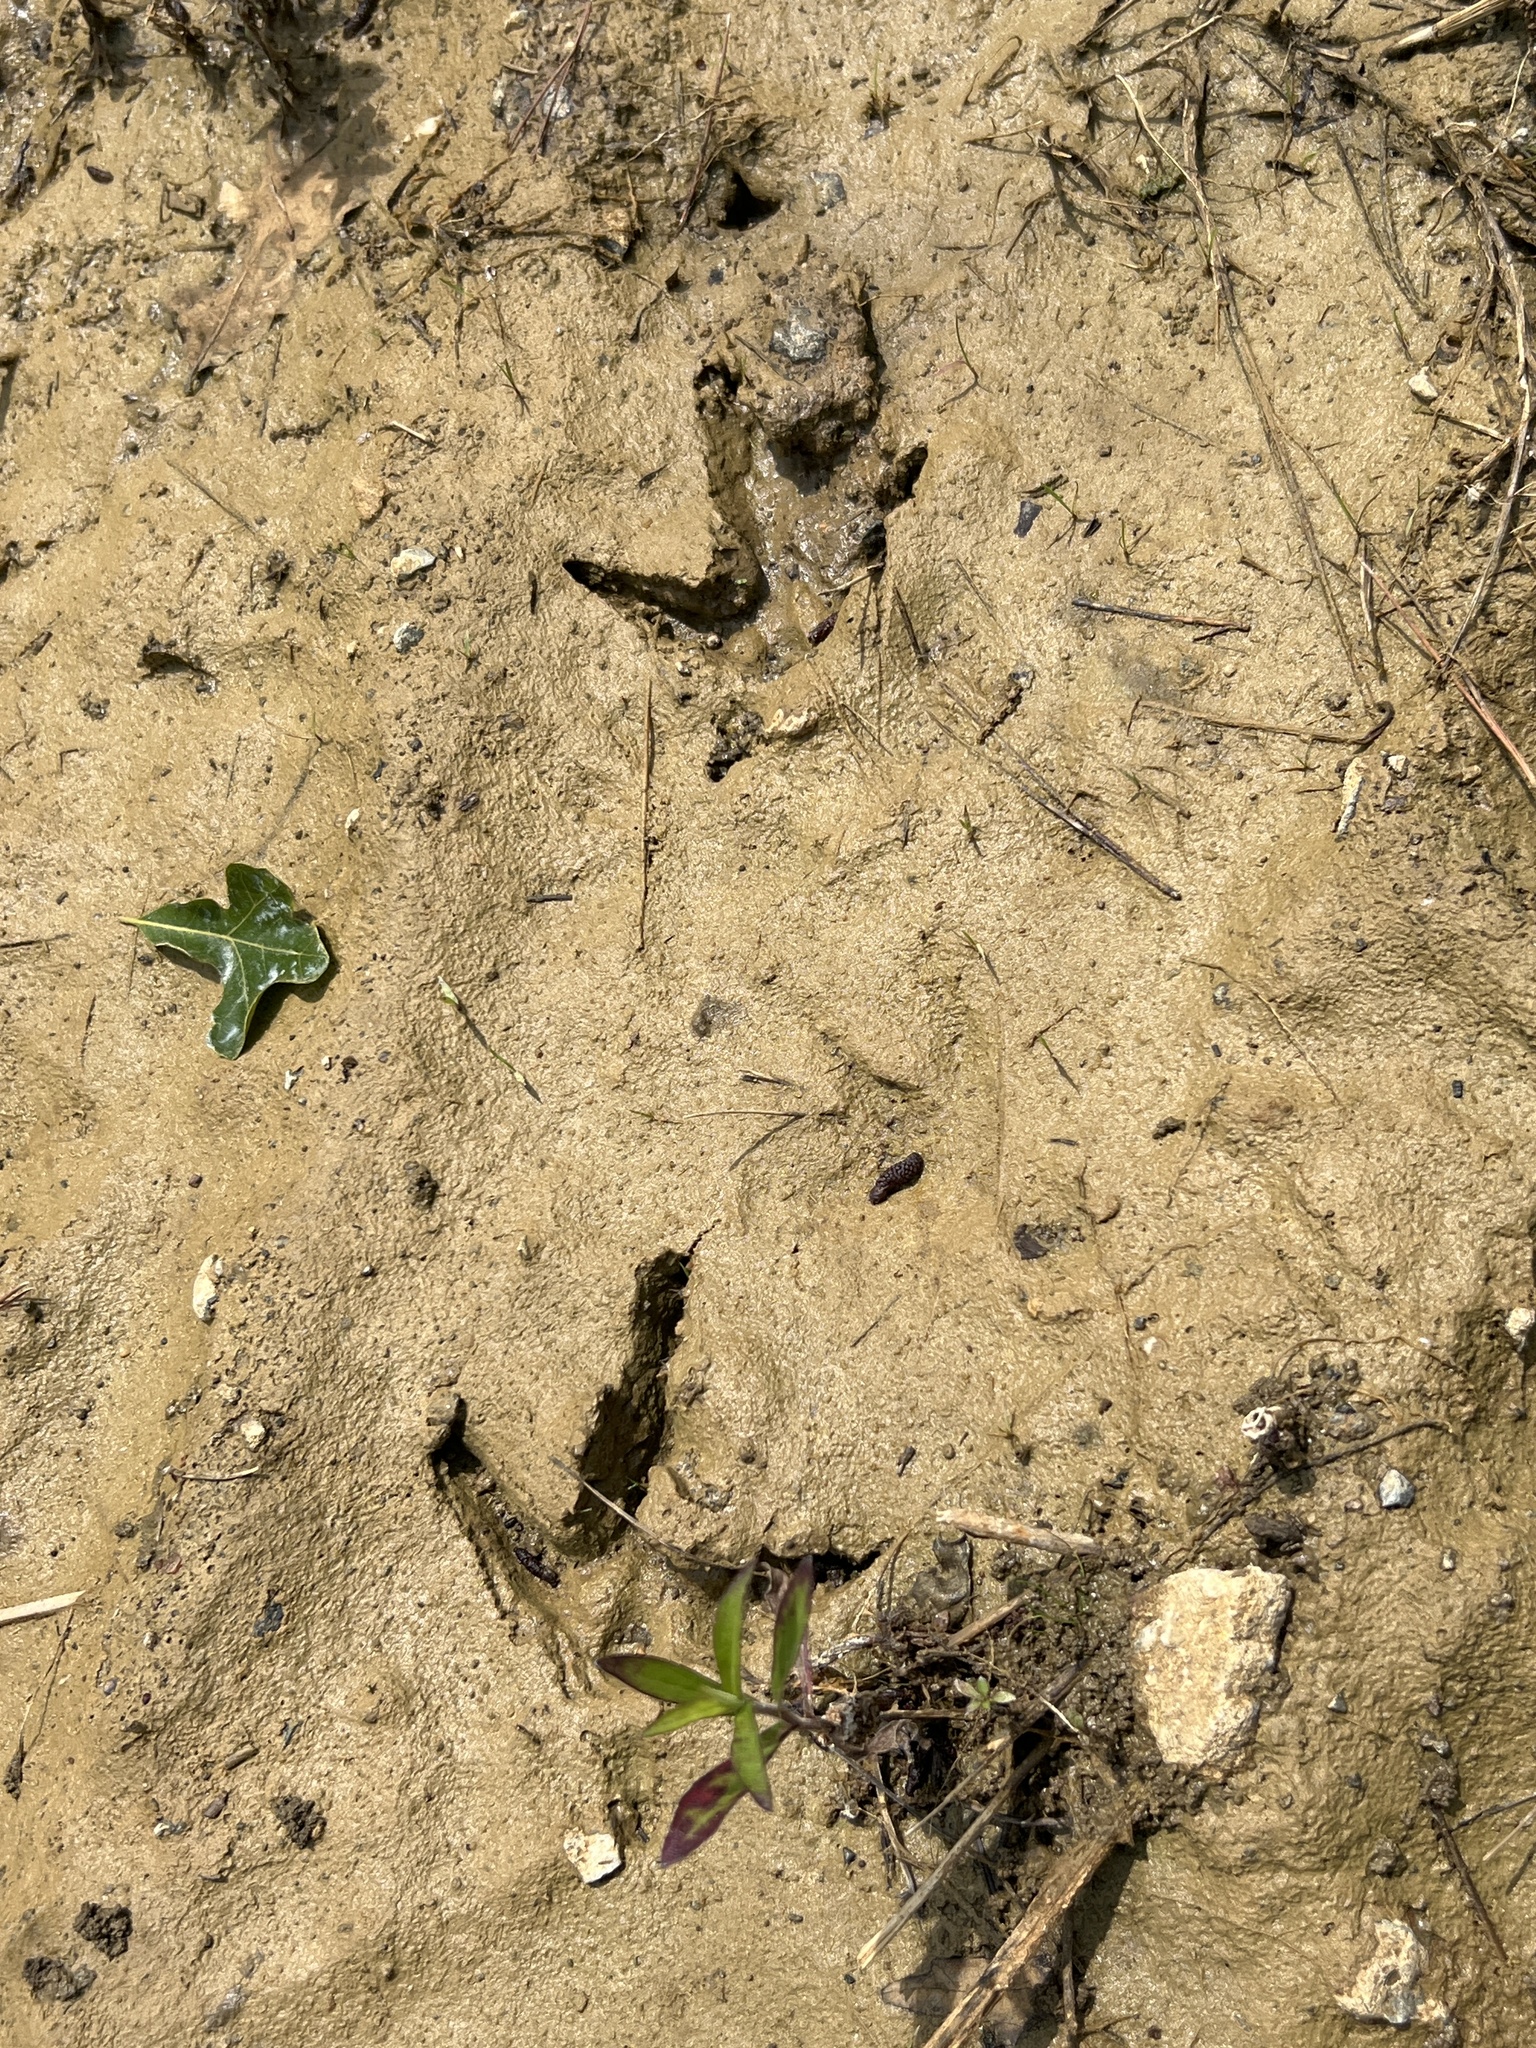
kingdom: Animalia
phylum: Chordata
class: Aves
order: Galliformes
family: Phasianidae
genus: Meleagris
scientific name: Meleagris gallopavo
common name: Wild turkey
